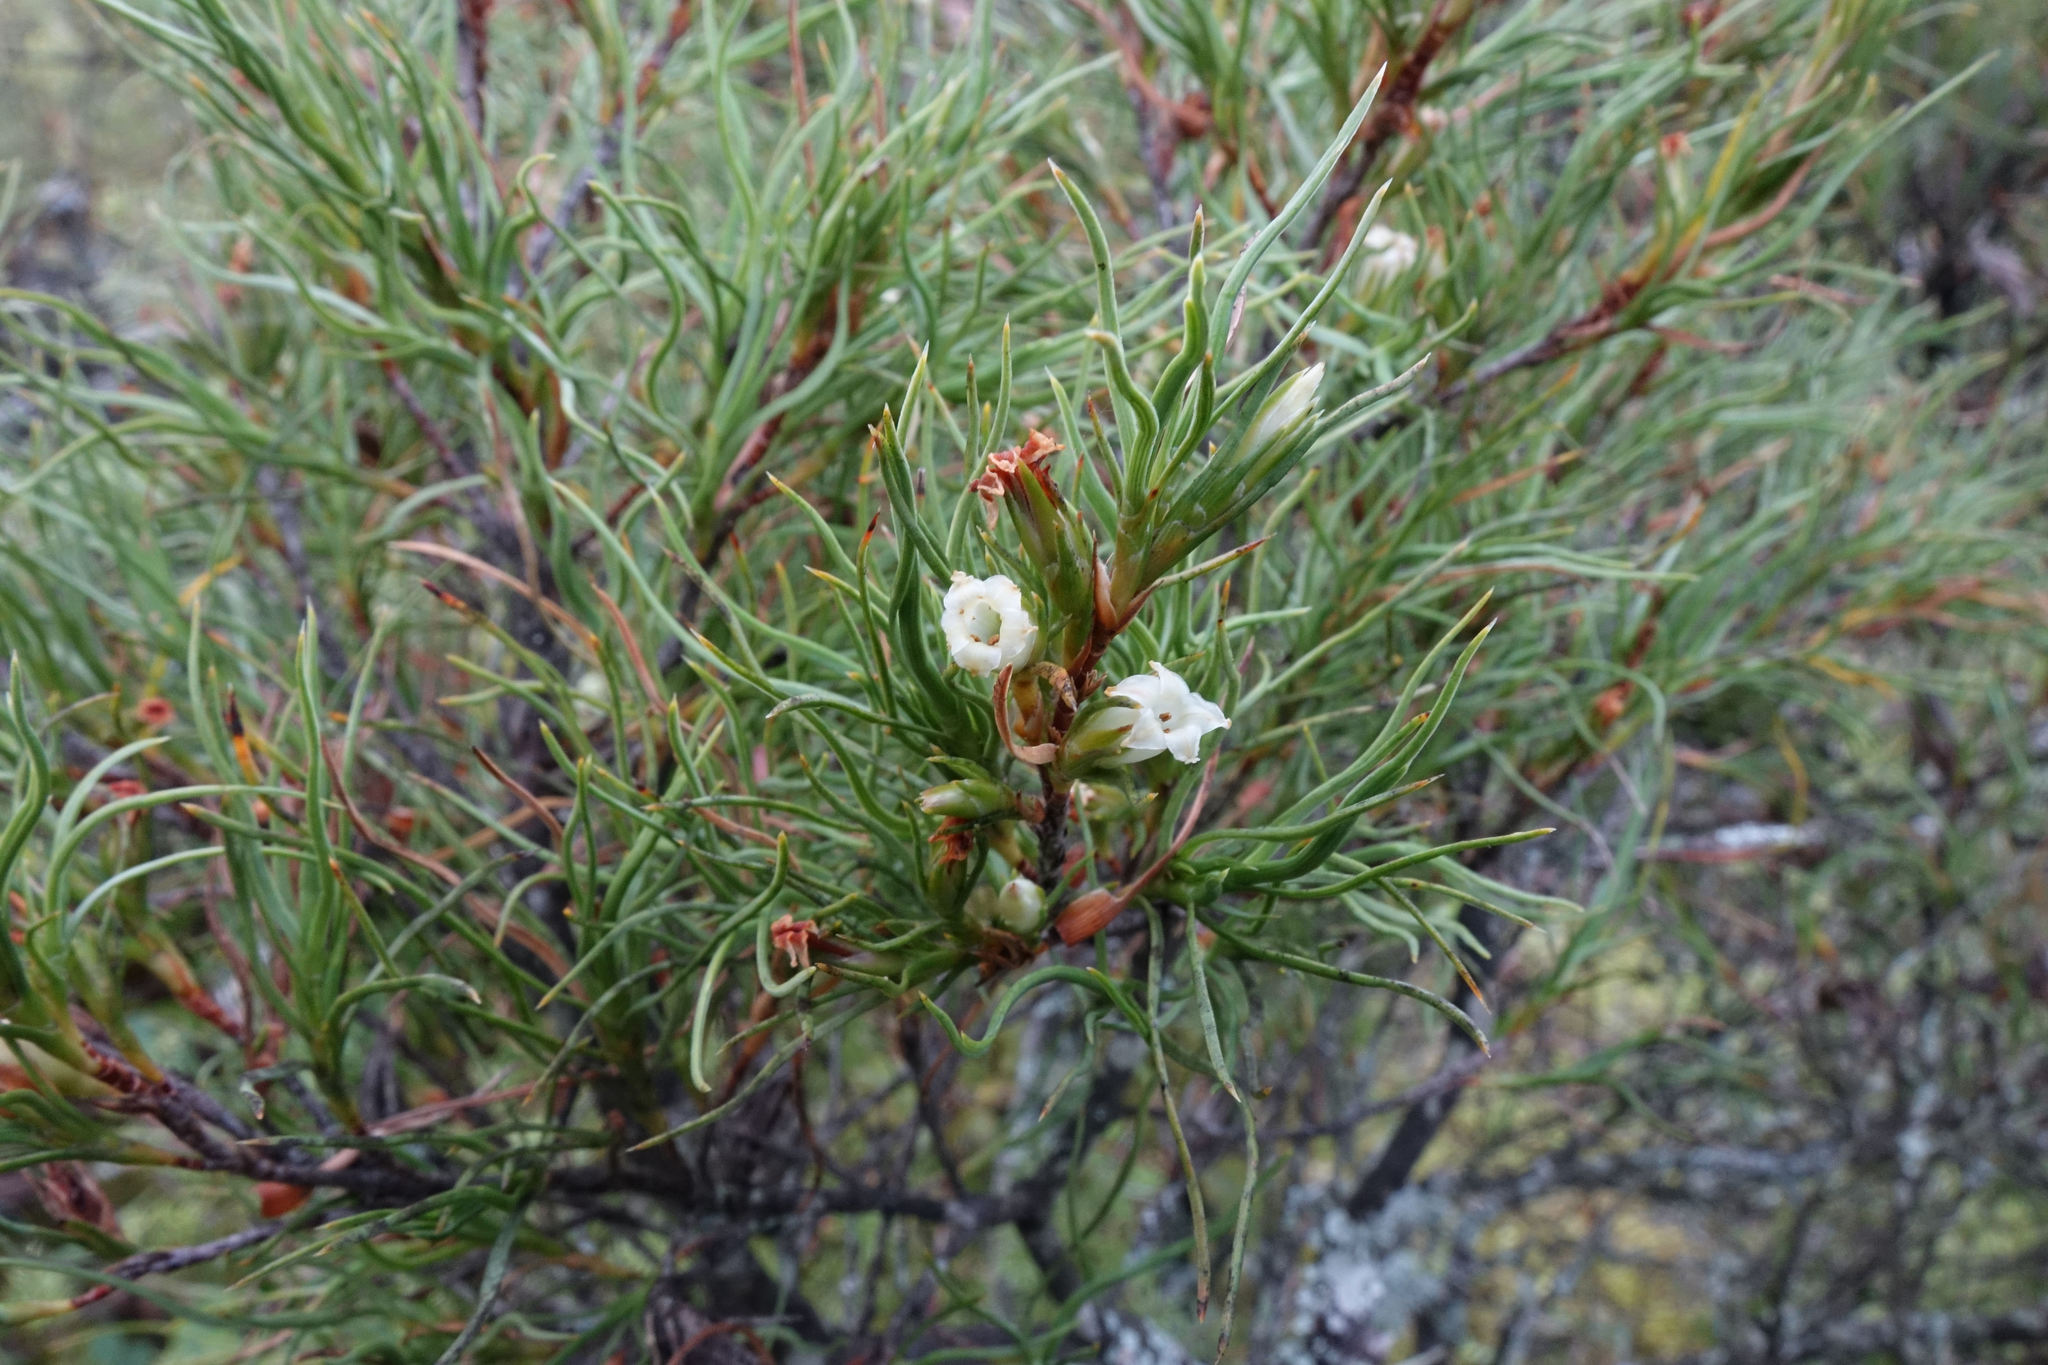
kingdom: Plantae
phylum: Tracheophyta
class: Magnoliopsida
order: Ericales
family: Ericaceae
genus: Dracophyllum
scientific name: Dracophyllum frondosum
